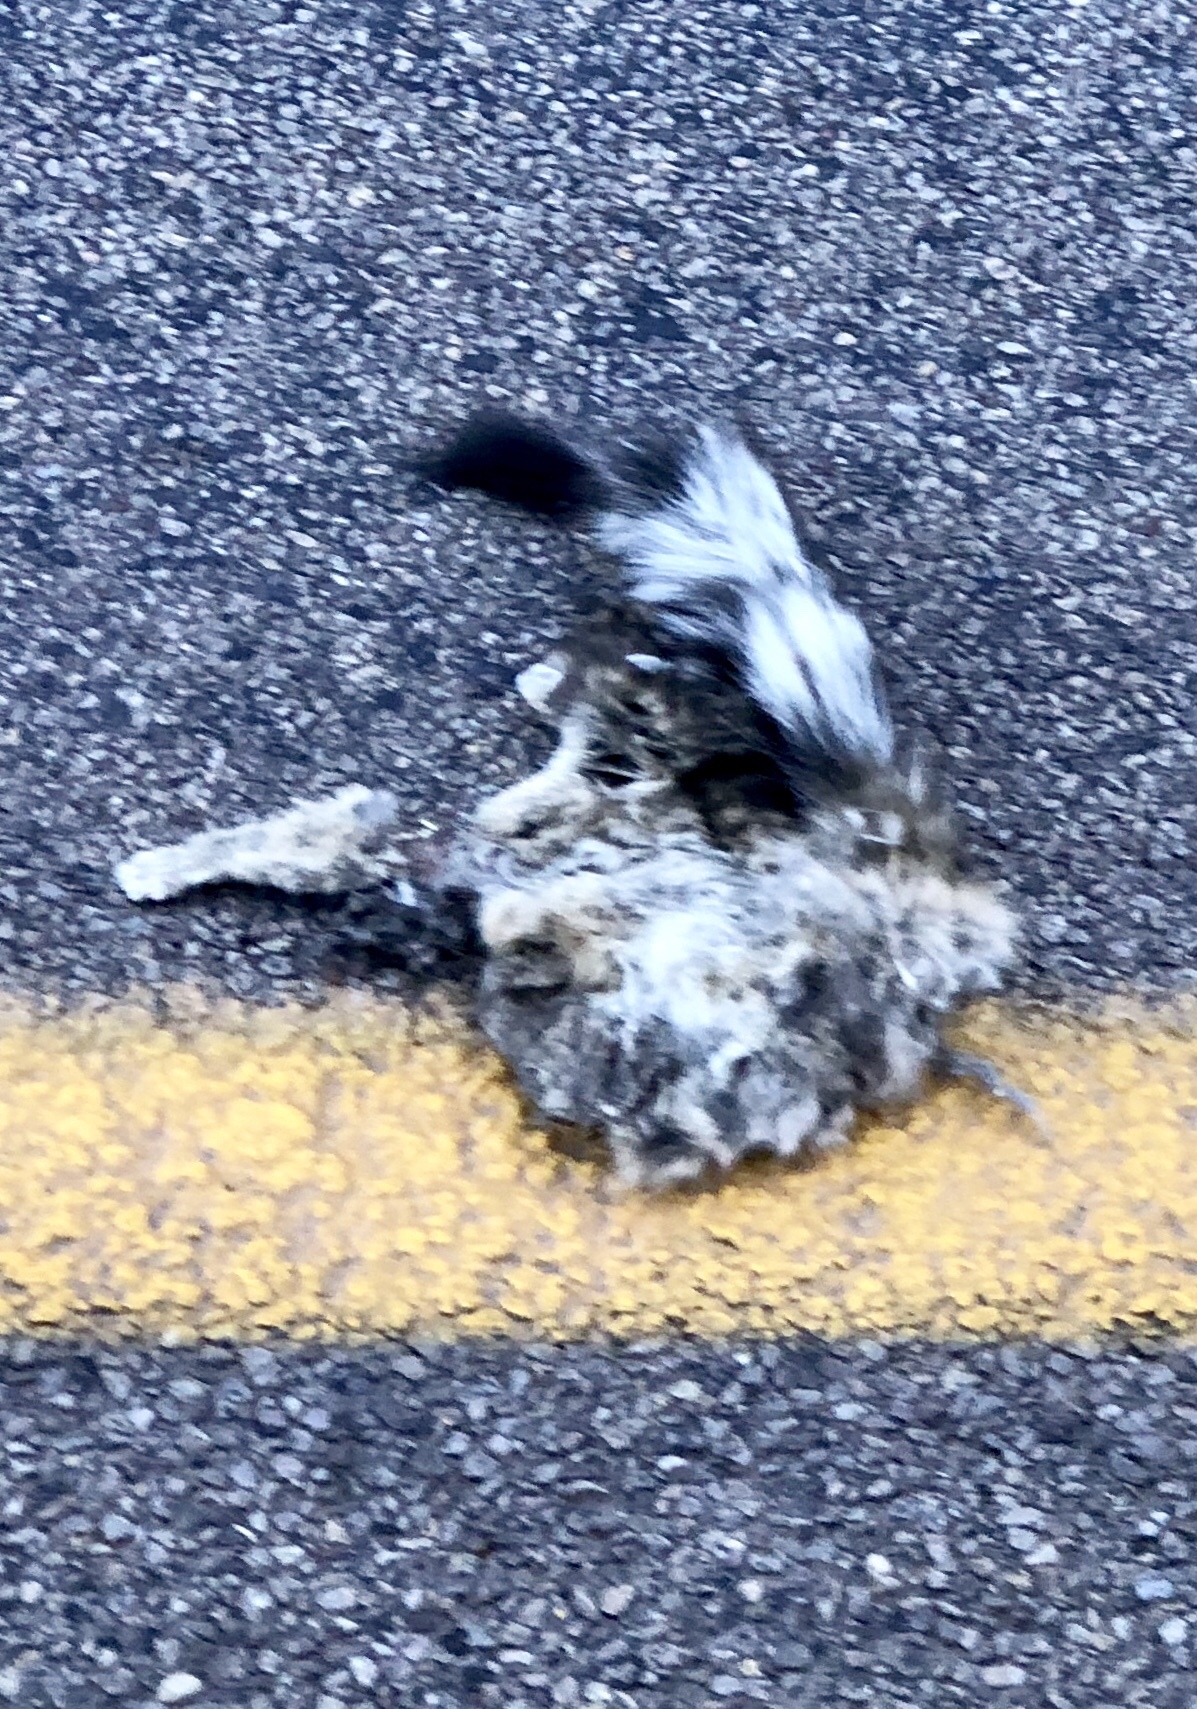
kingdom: Animalia
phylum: Chordata
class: Mammalia
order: Carnivora
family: Procyonidae
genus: Bassariscus
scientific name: Bassariscus astutus
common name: Ringtail
